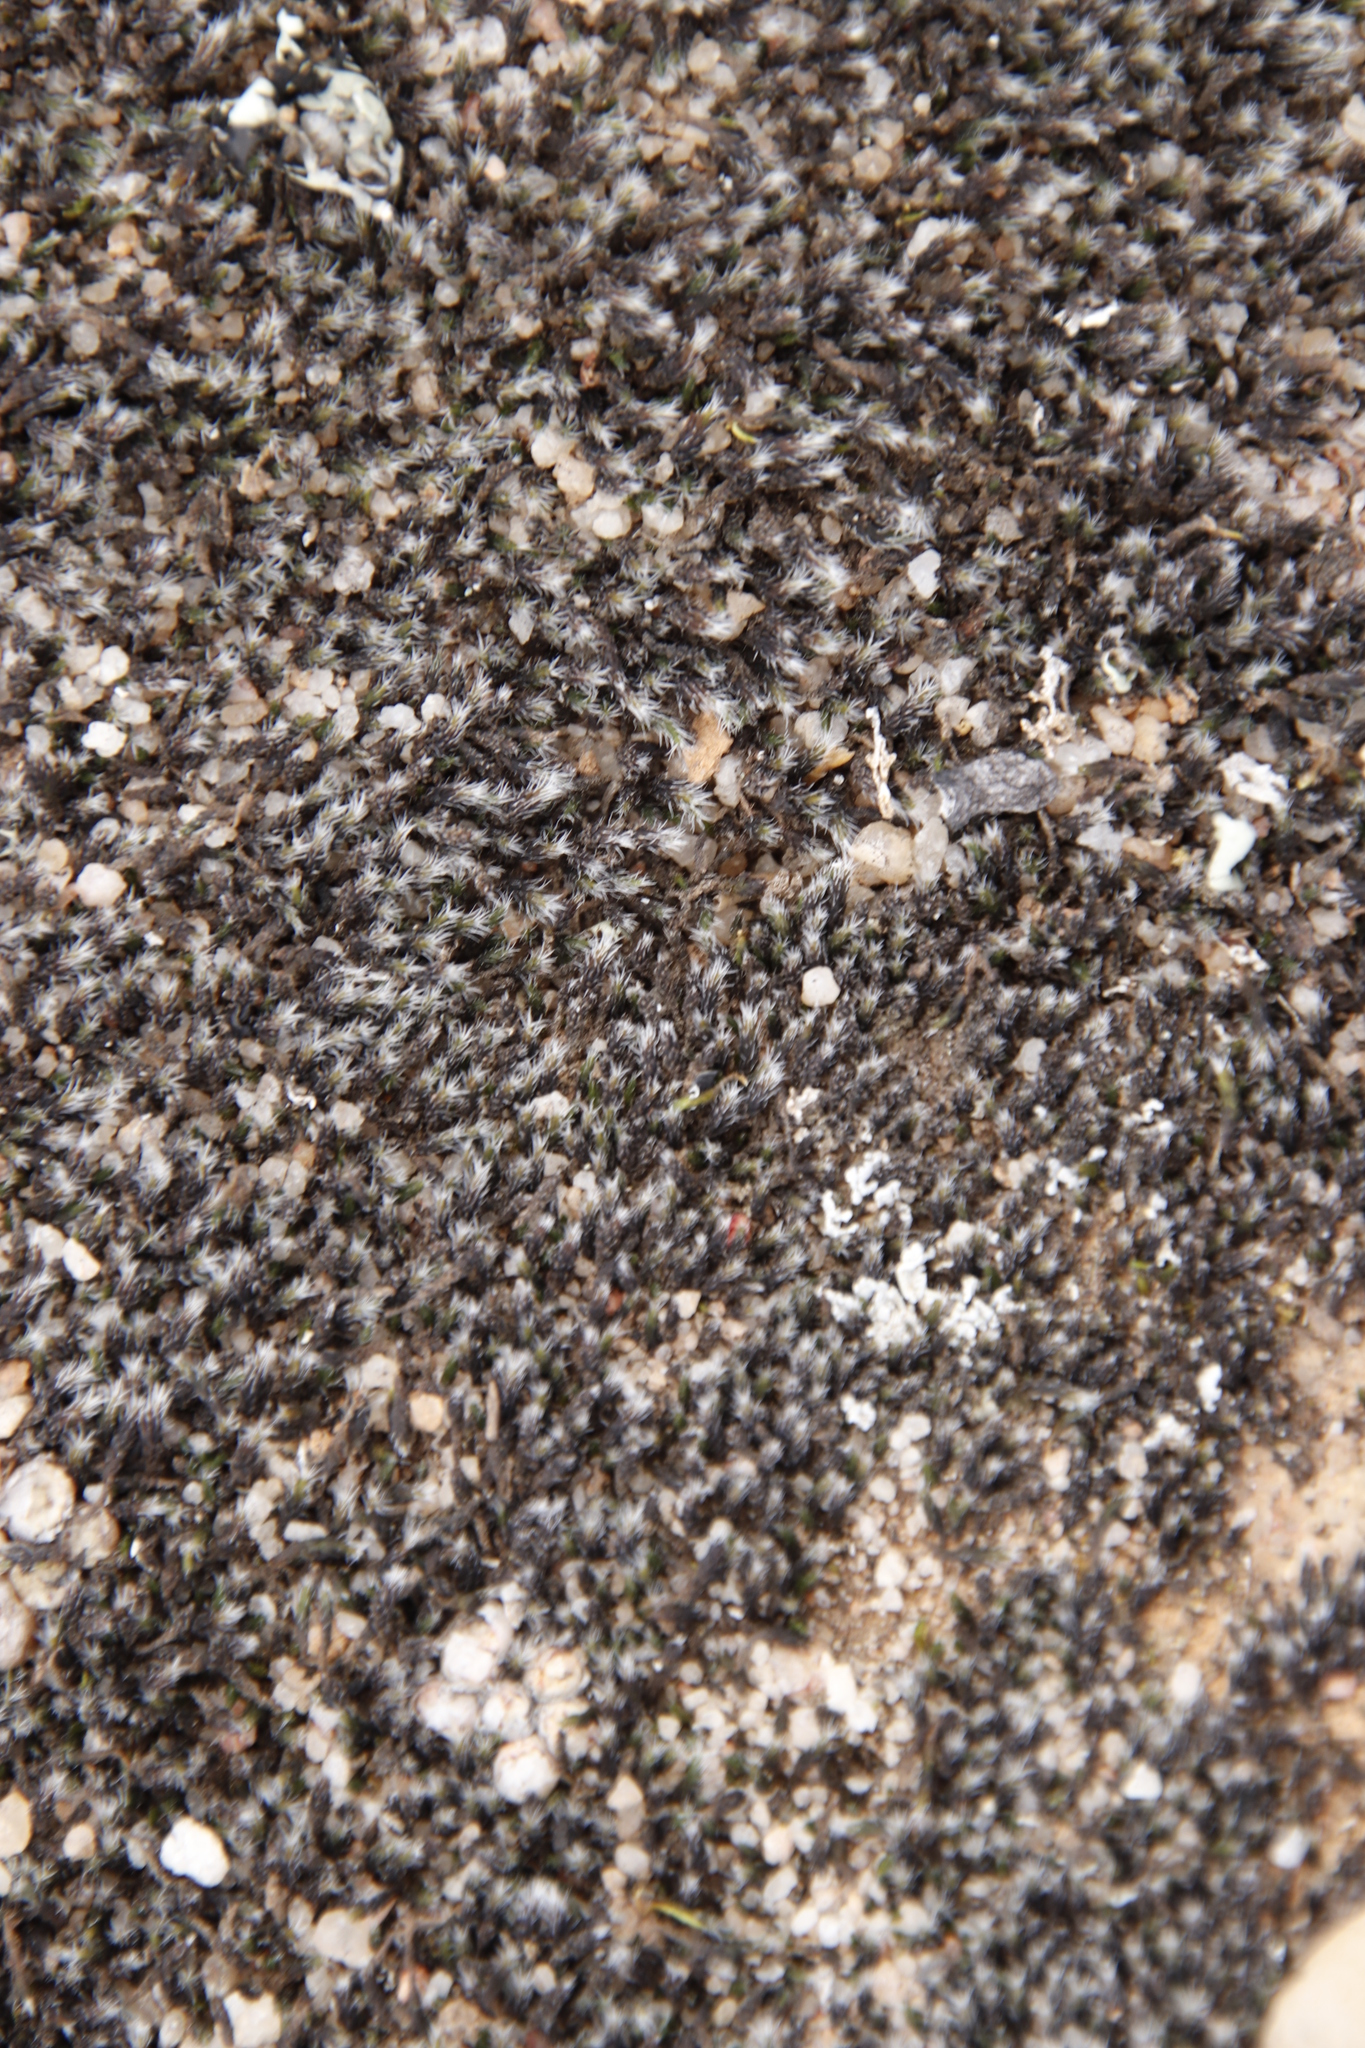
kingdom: Plantae
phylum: Bryophyta
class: Bryopsida
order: Grimmiales
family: Grimmiaceae
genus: Grimmia
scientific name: Grimmia laevigata
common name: Hoary grimmia
